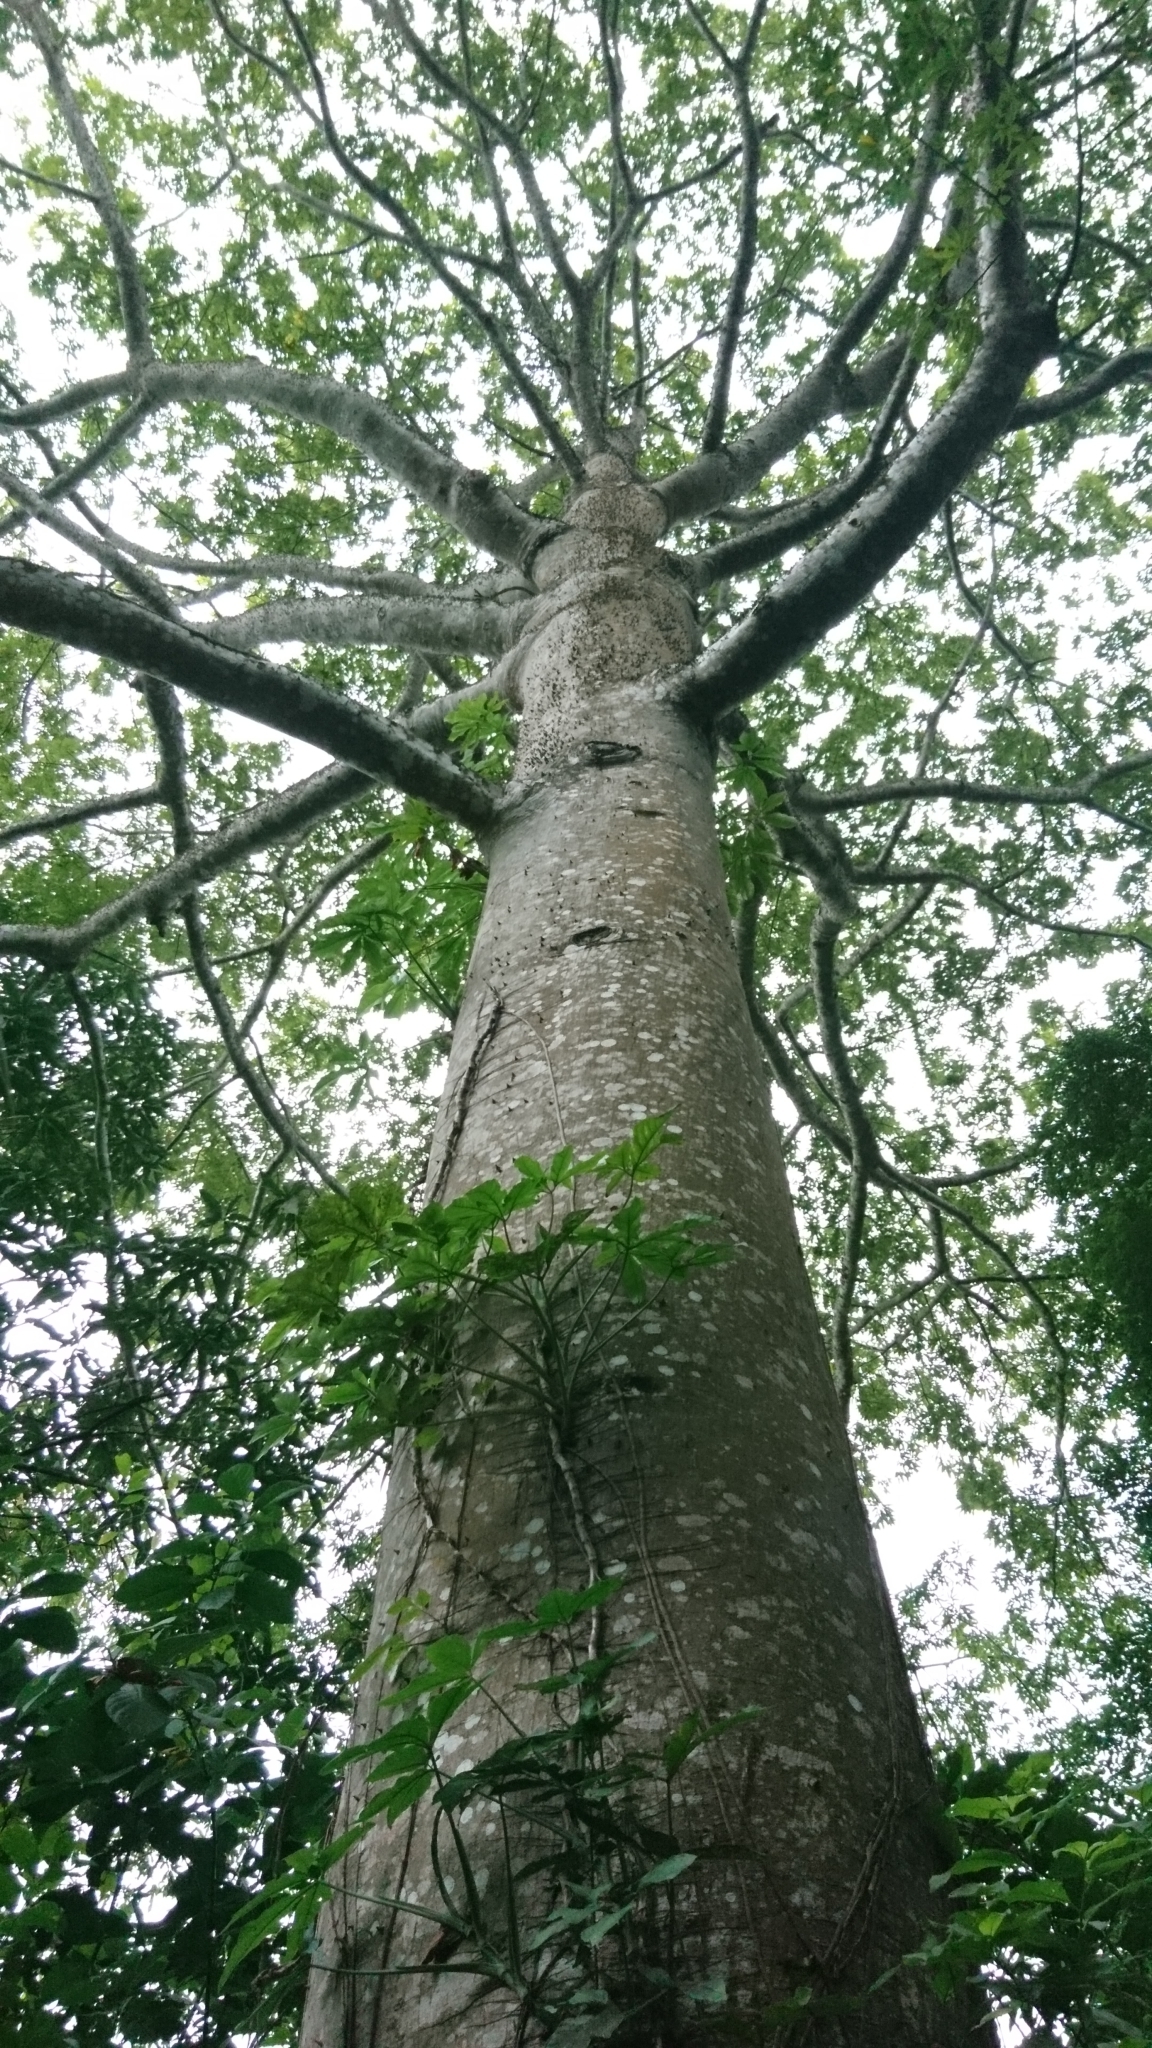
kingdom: Plantae
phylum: Tracheophyta
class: Magnoliopsida
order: Malvales
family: Malvaceae
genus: Ceiba
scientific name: Ceiba pentandra
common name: Kapok
